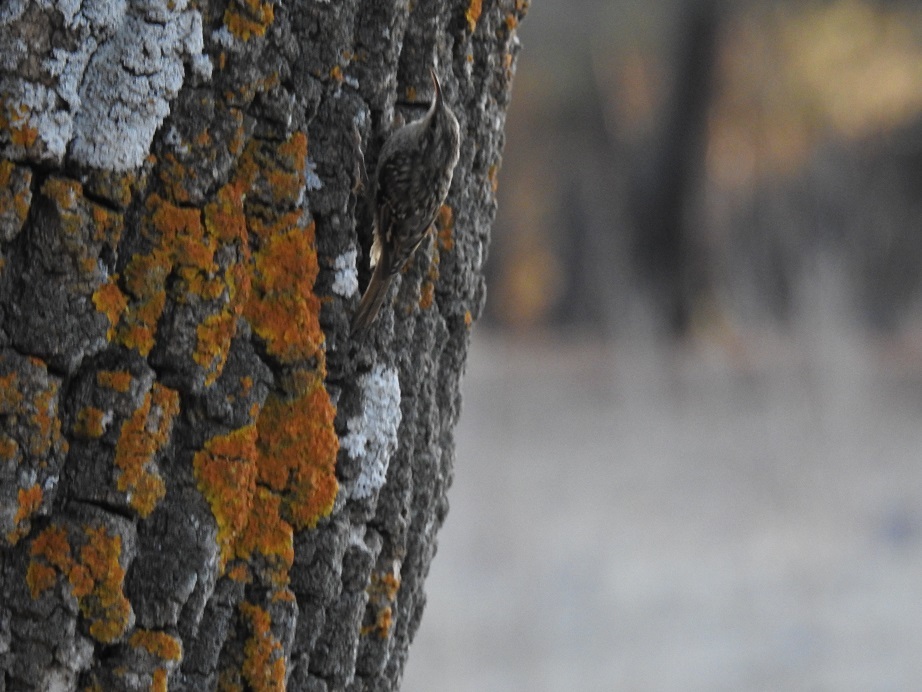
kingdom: Animalia
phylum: Chordata
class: Aves
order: Passeriformes
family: Certhiidae
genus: Certhia
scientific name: Certhia brachydactyla
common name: Short-toed treecreeper
